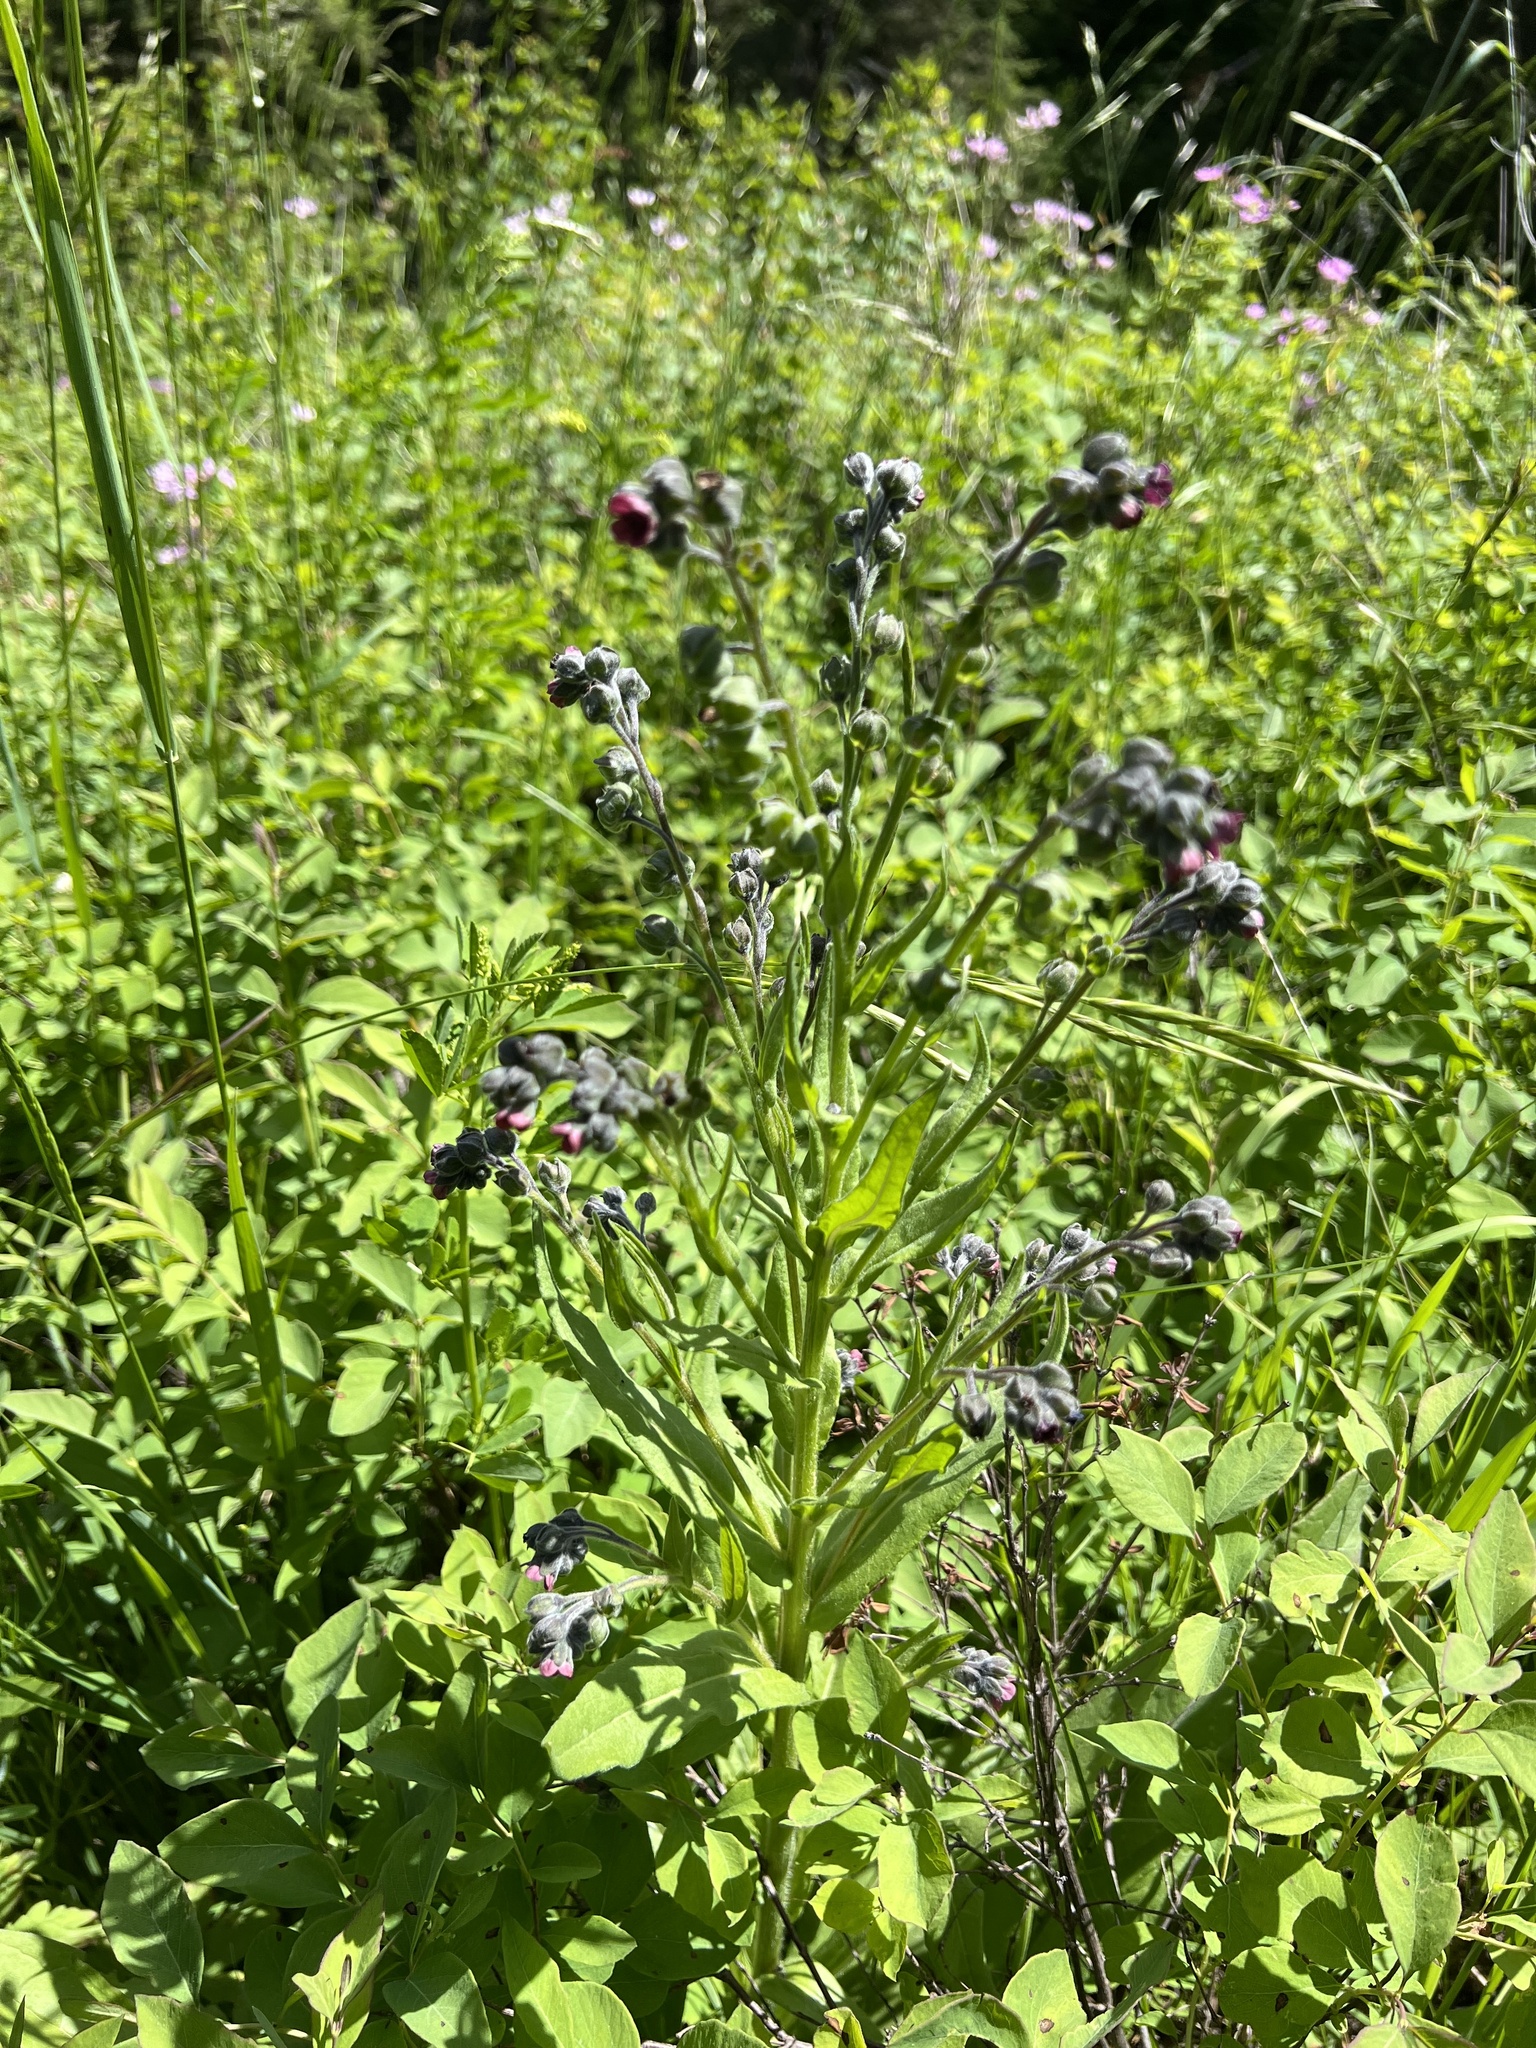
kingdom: Plantae
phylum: Tracheophyta
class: Magnoliopsida
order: Boraginales
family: Boraginaceae
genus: Cynoglossum
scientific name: Cynoglossum officinale
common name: Hound's-tongue
